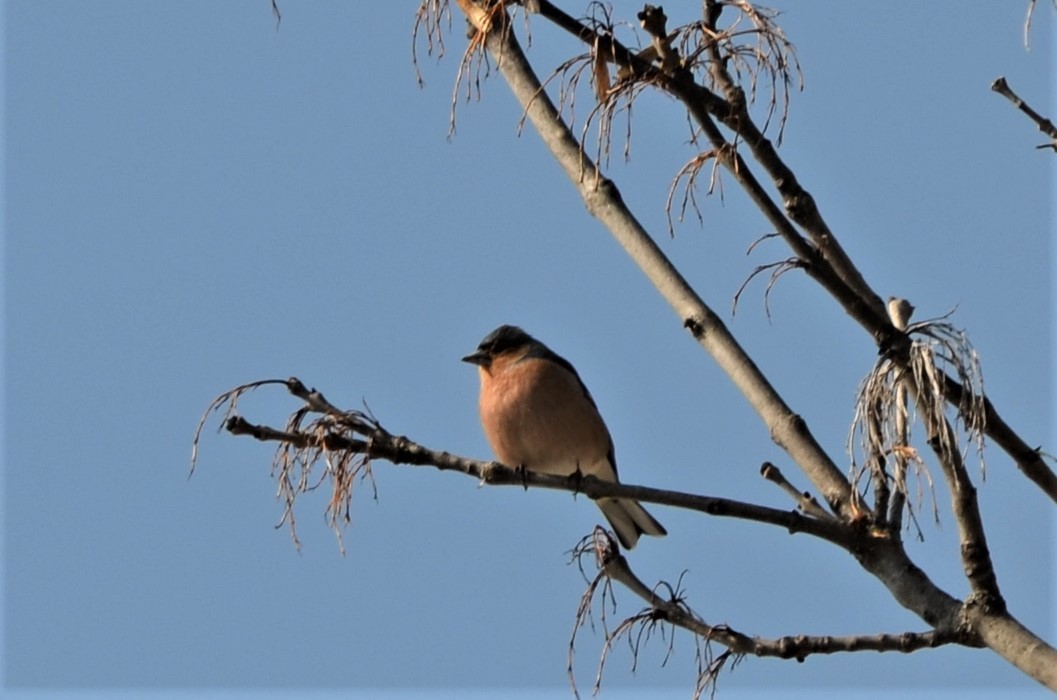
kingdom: Animalia
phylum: Chordata
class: Aves
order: Passeriformes
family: Fringillidae
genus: Fringilla
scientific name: Fringilla coelebs
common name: Common chaffinch
